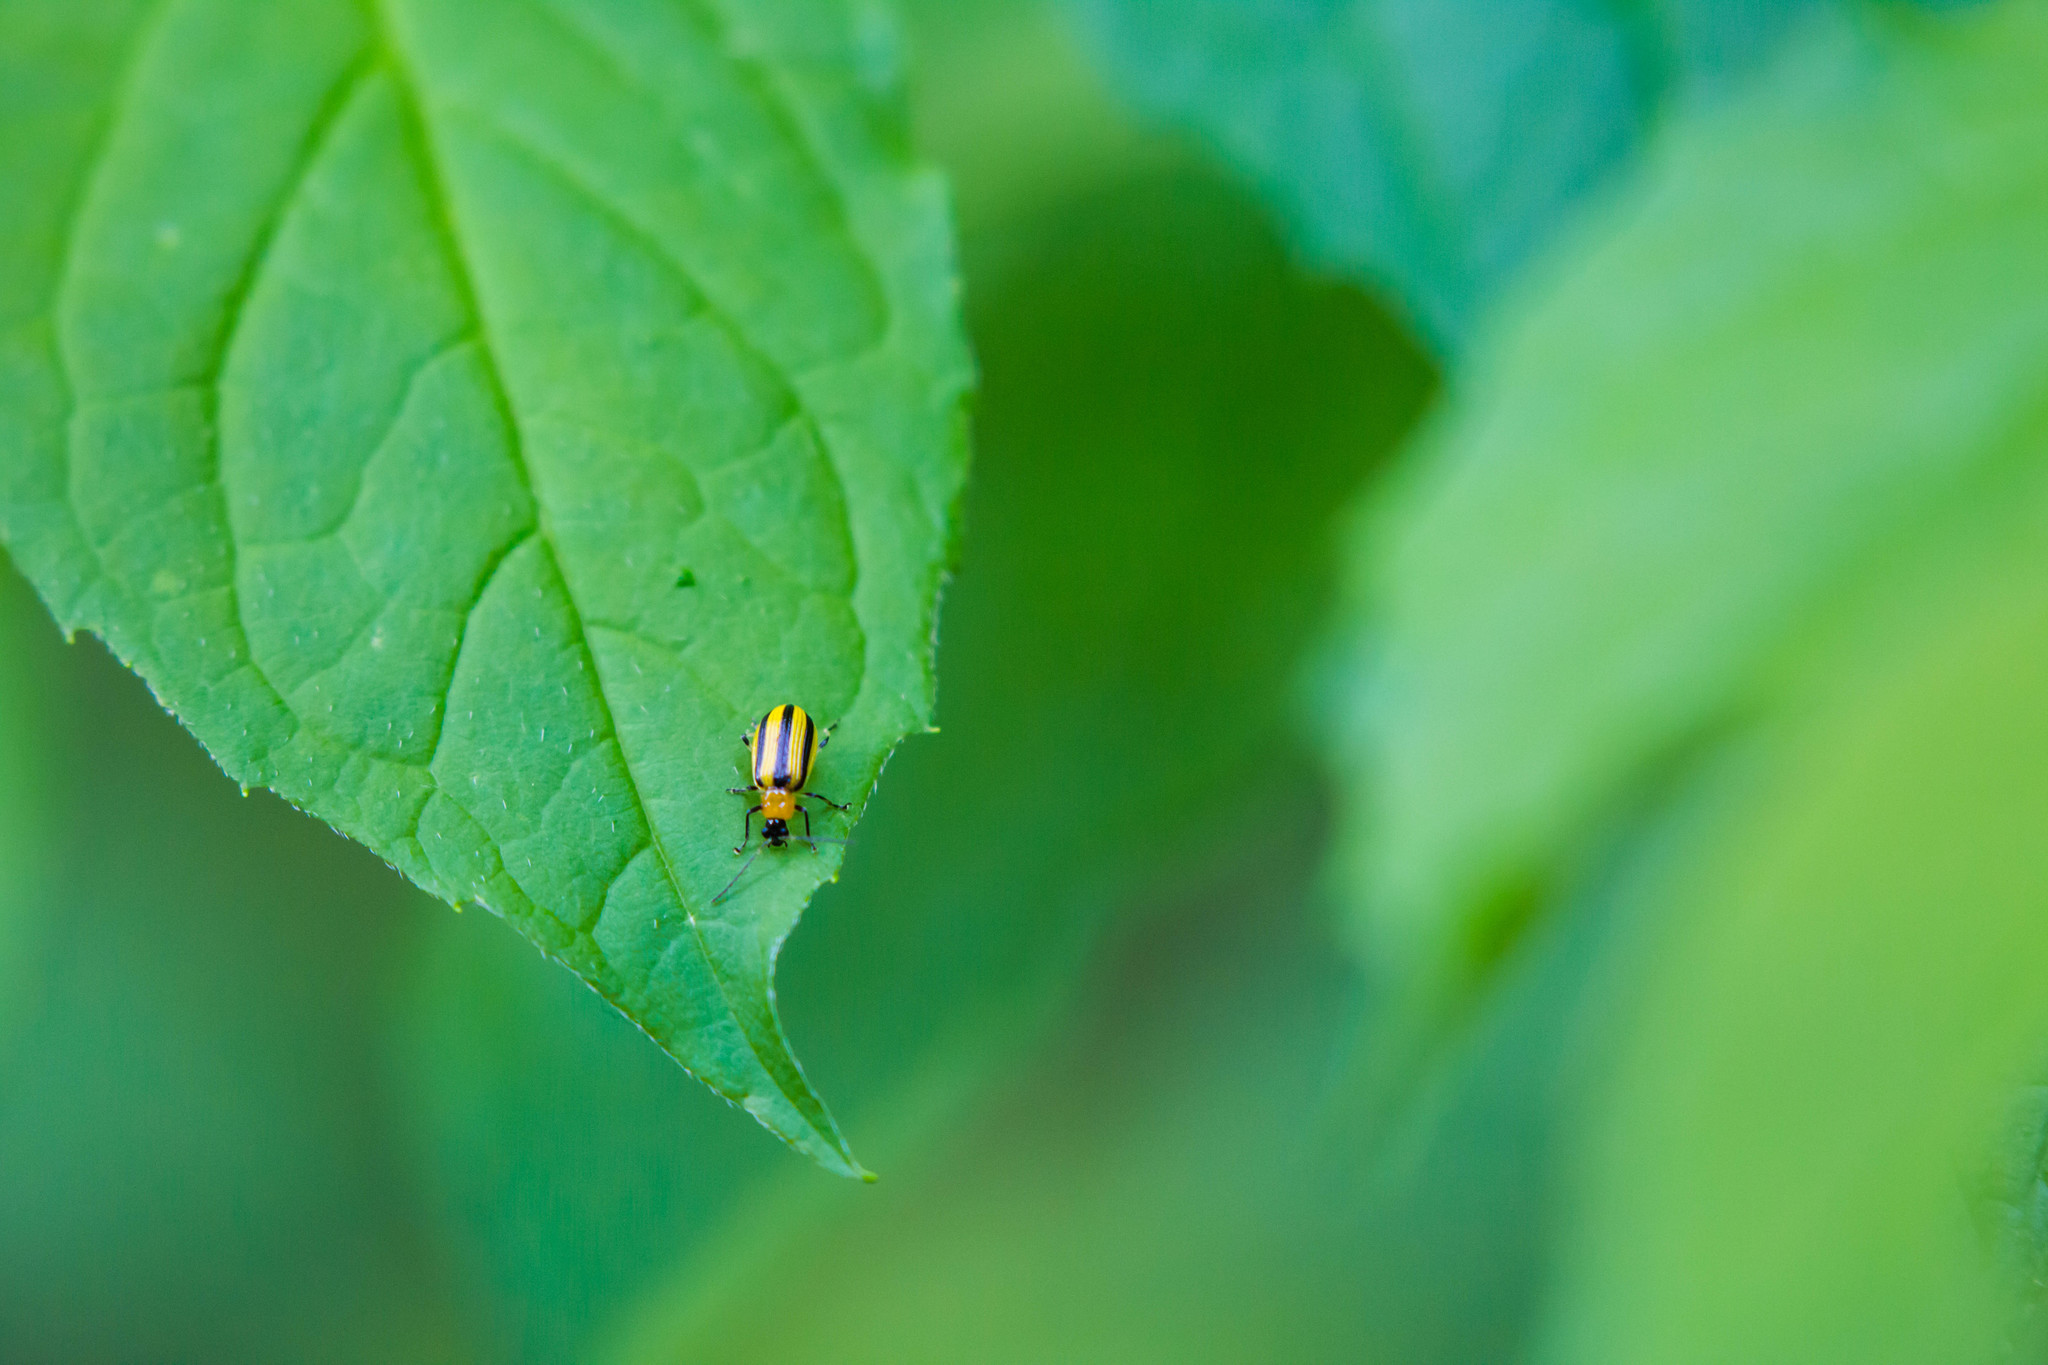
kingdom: Animalia
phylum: Arthropoda
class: Insecta
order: Coleoptera
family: Chrysomelidae
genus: Acalymma
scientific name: Acalymma vittatum
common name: Striped cucumber beetle
